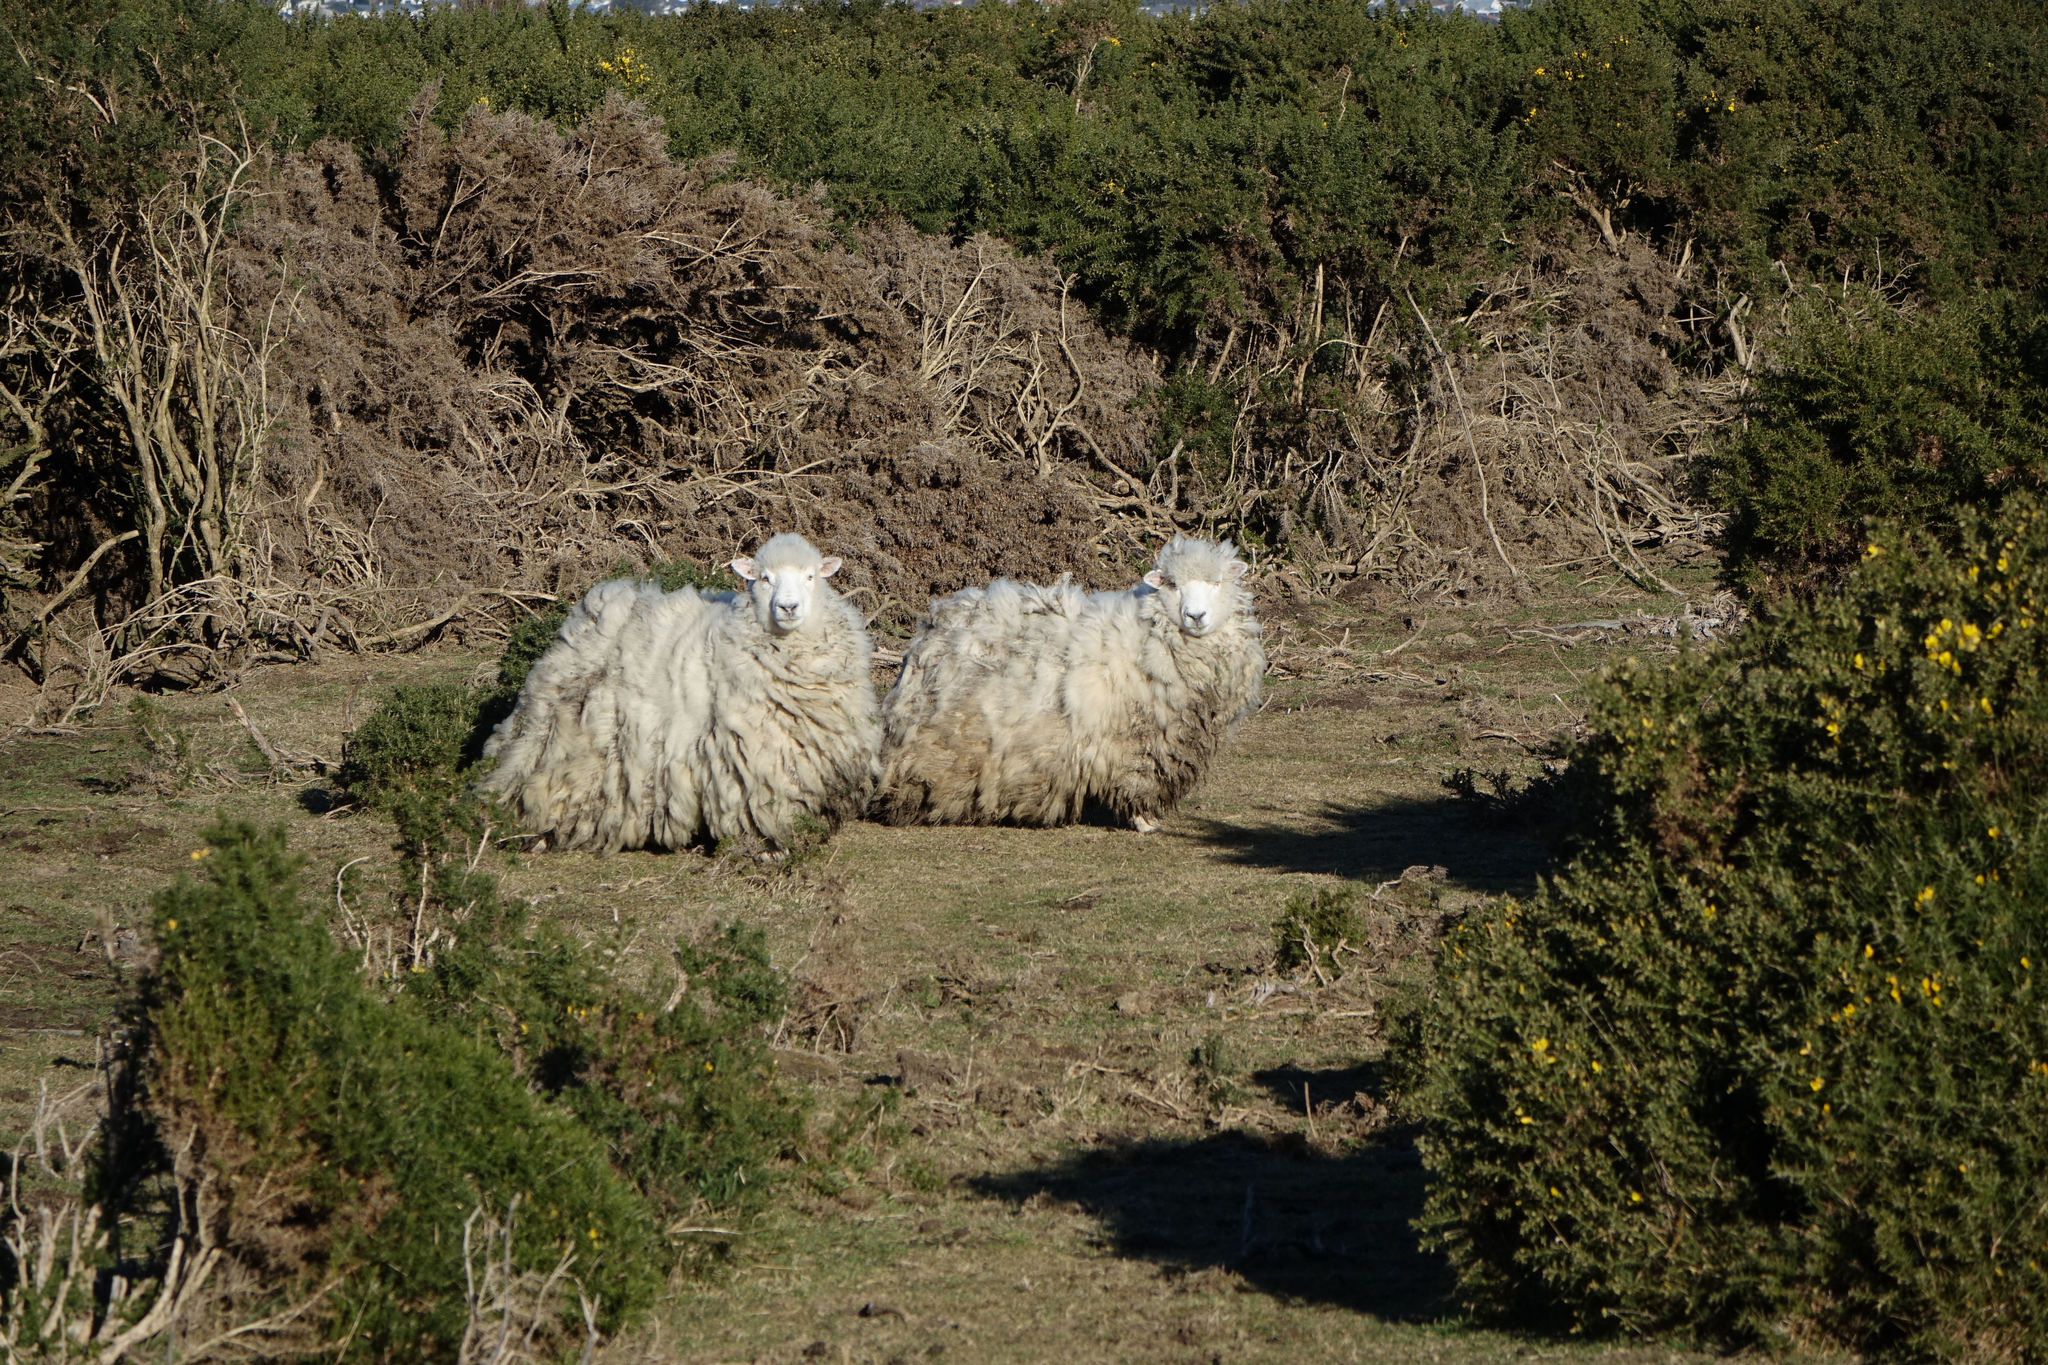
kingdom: Animalia
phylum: Chordata
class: Mammalia
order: Artiodactyla
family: Bovidae
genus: Ovis
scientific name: Ovis aries
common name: Domestic sheep
